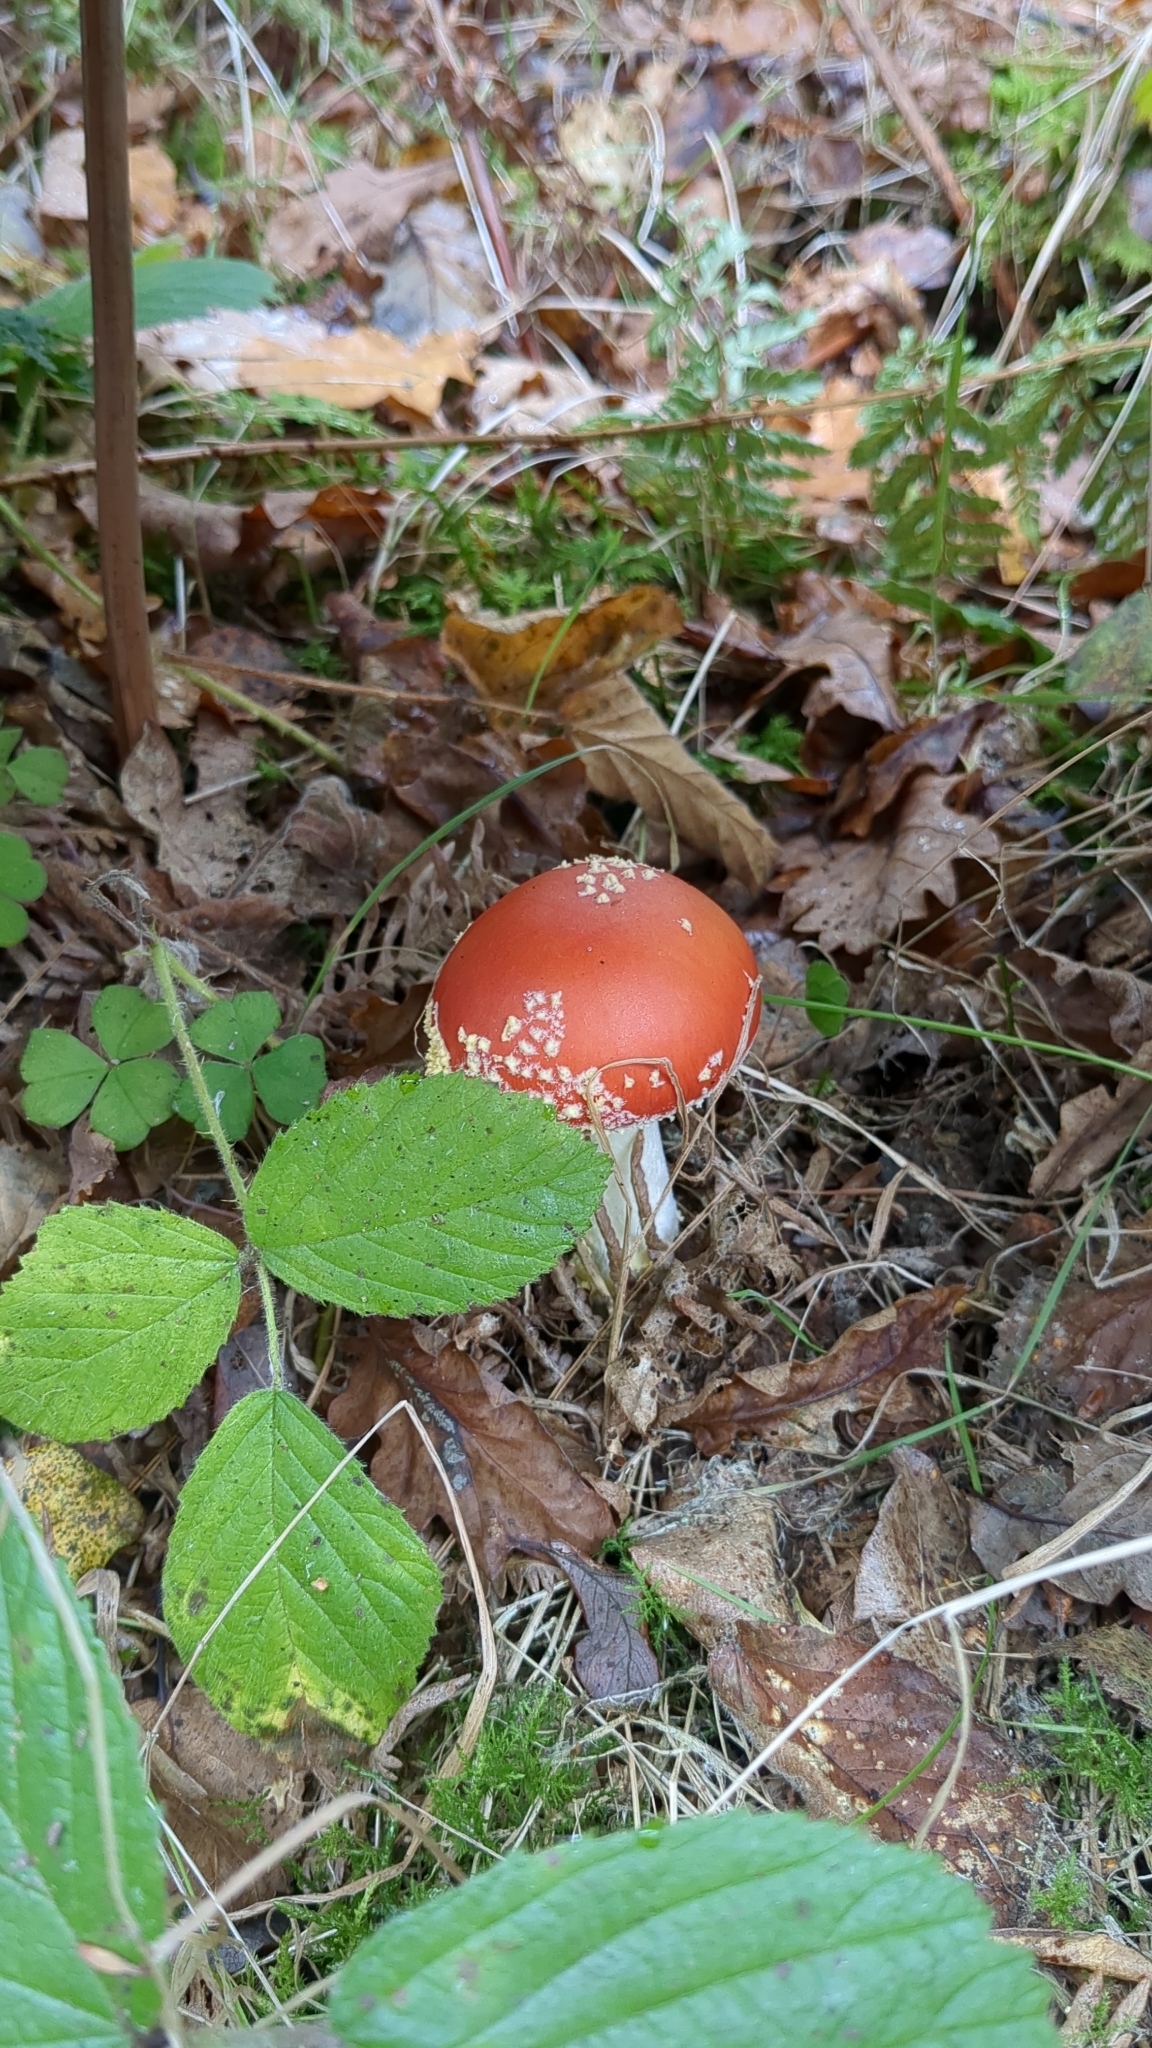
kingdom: Fungi
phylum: Basidiomycota
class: Agaricomycetes
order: Agaricales
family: Amanitaceae
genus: Amanita
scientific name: Amanita muscaria
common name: Fly agaric
